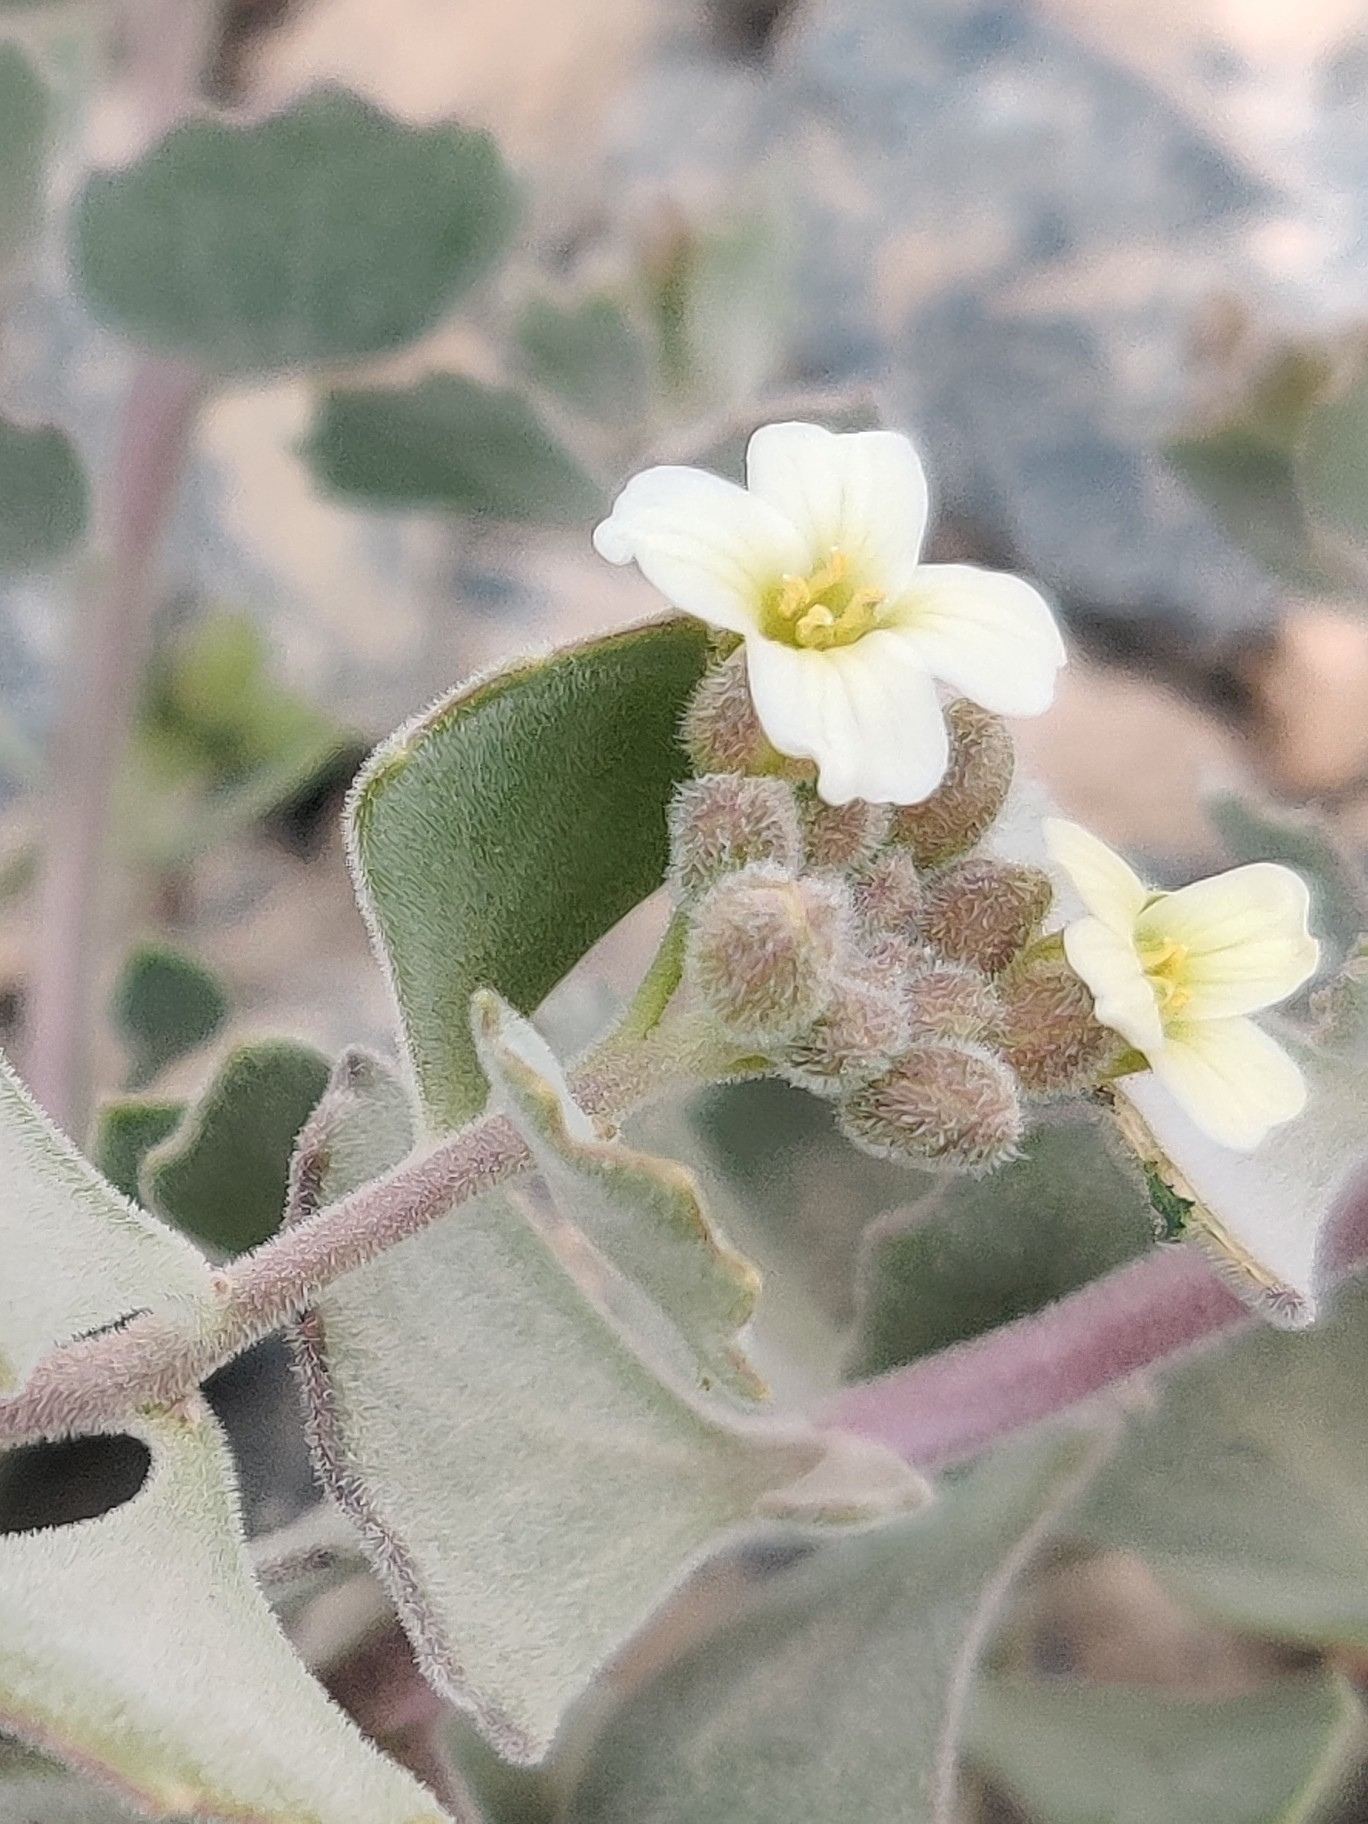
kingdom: Plantae
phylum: Tracheophyta
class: Magnoliopsida
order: Brassicales
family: Brassicaceae
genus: Christolea
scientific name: Christolea crassifolia
